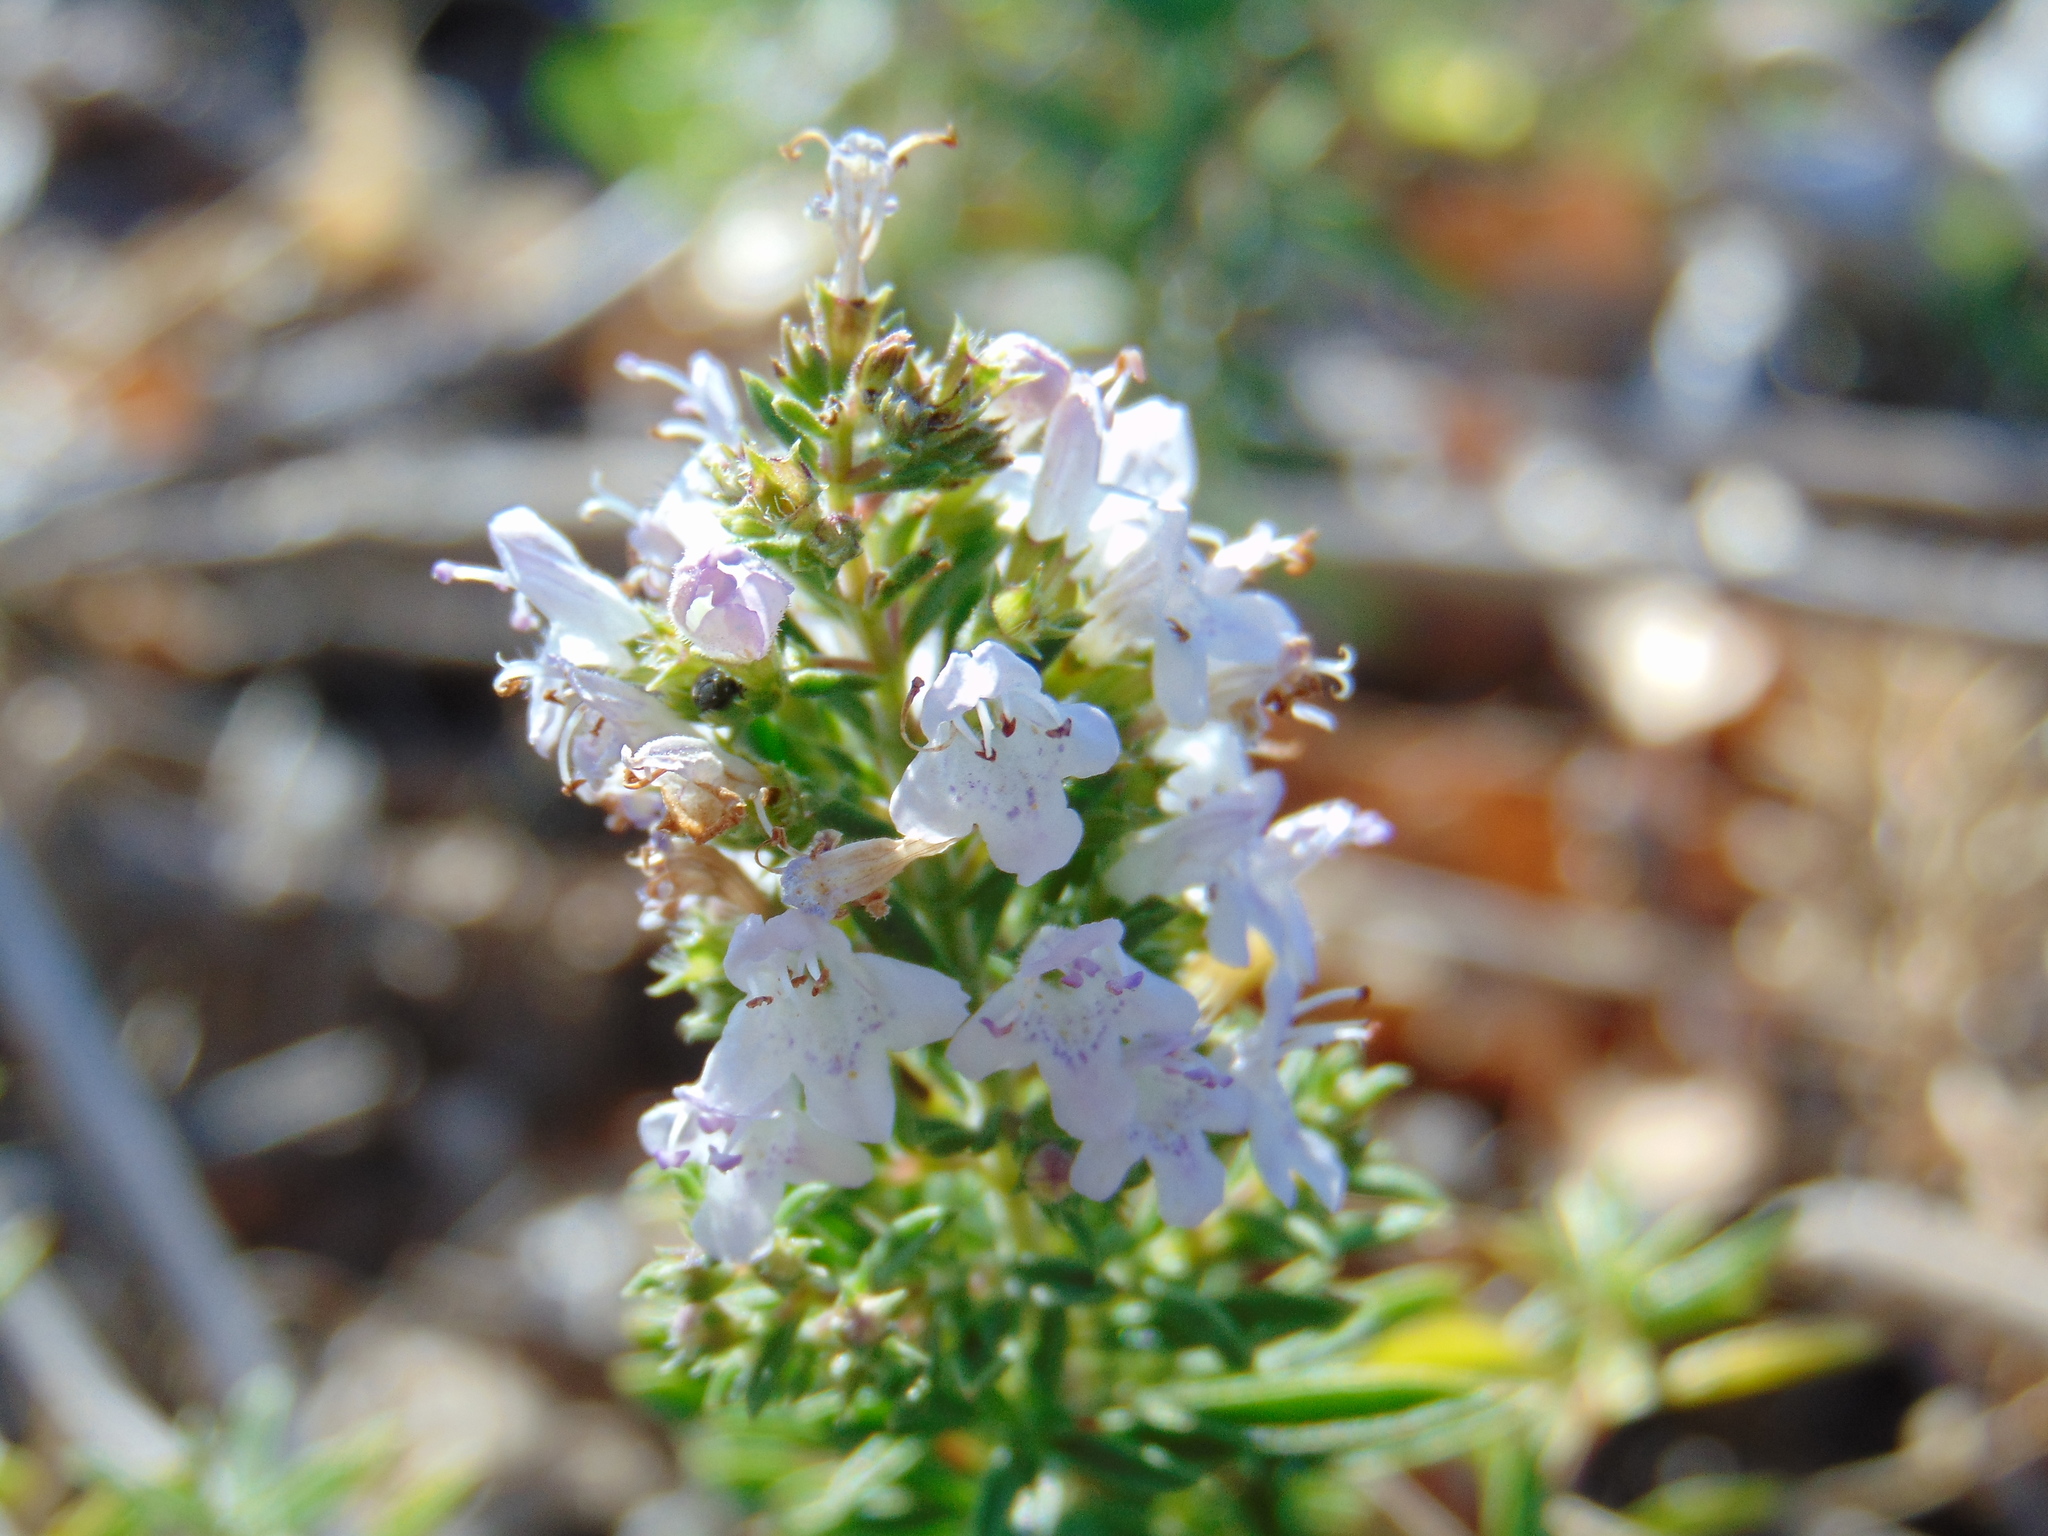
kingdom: Plantae
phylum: Tracheophyta
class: Magnoliopsida
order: Lamiales
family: Lamiaceae
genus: Satureja
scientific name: Satureja montana
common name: Winter savory
